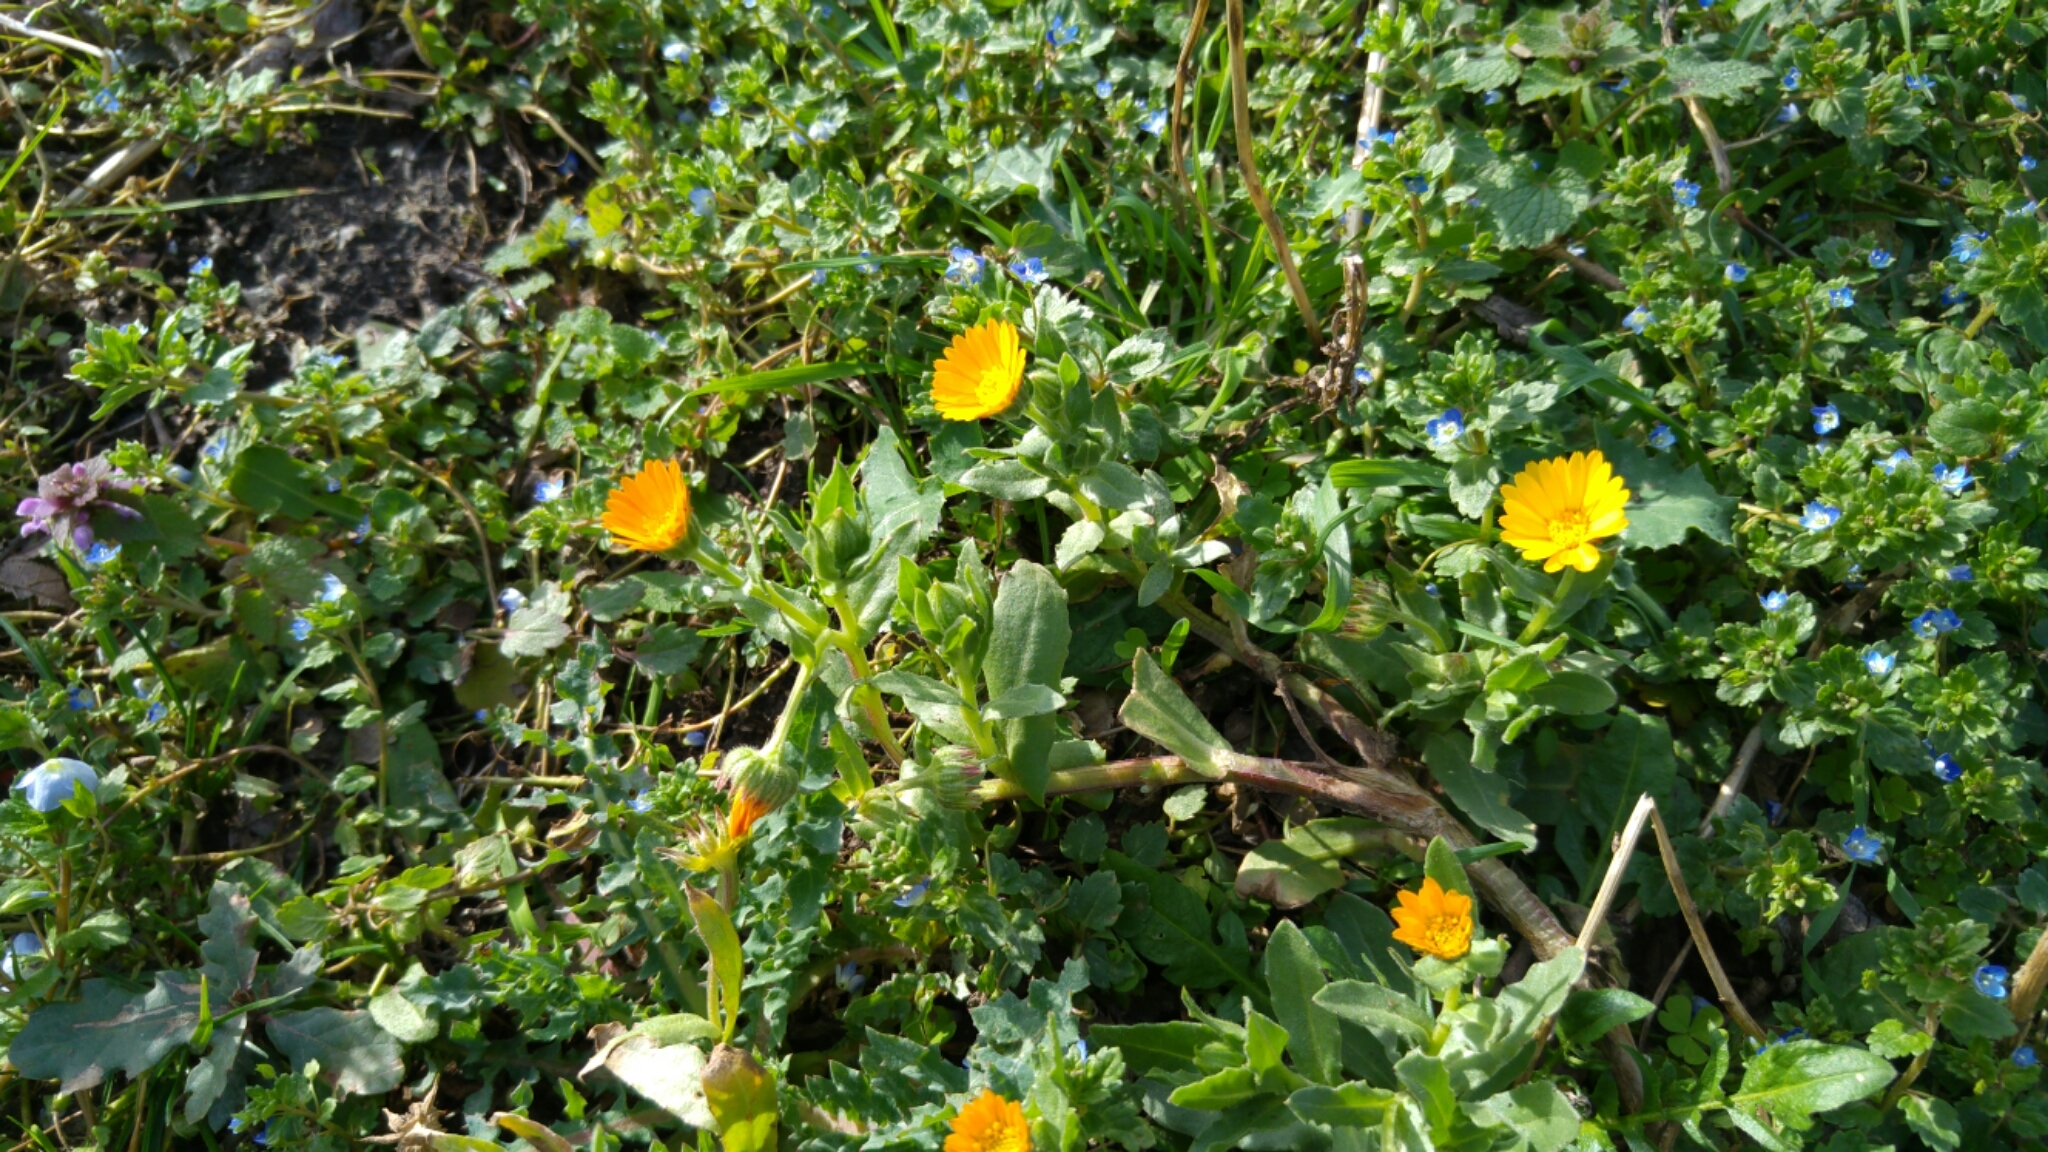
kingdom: Plantae
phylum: Tracheophyta
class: Magnoliopsida
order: Asterales
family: Asteraceae
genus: Calendula
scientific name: Calendula arvensis
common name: Field marigold
